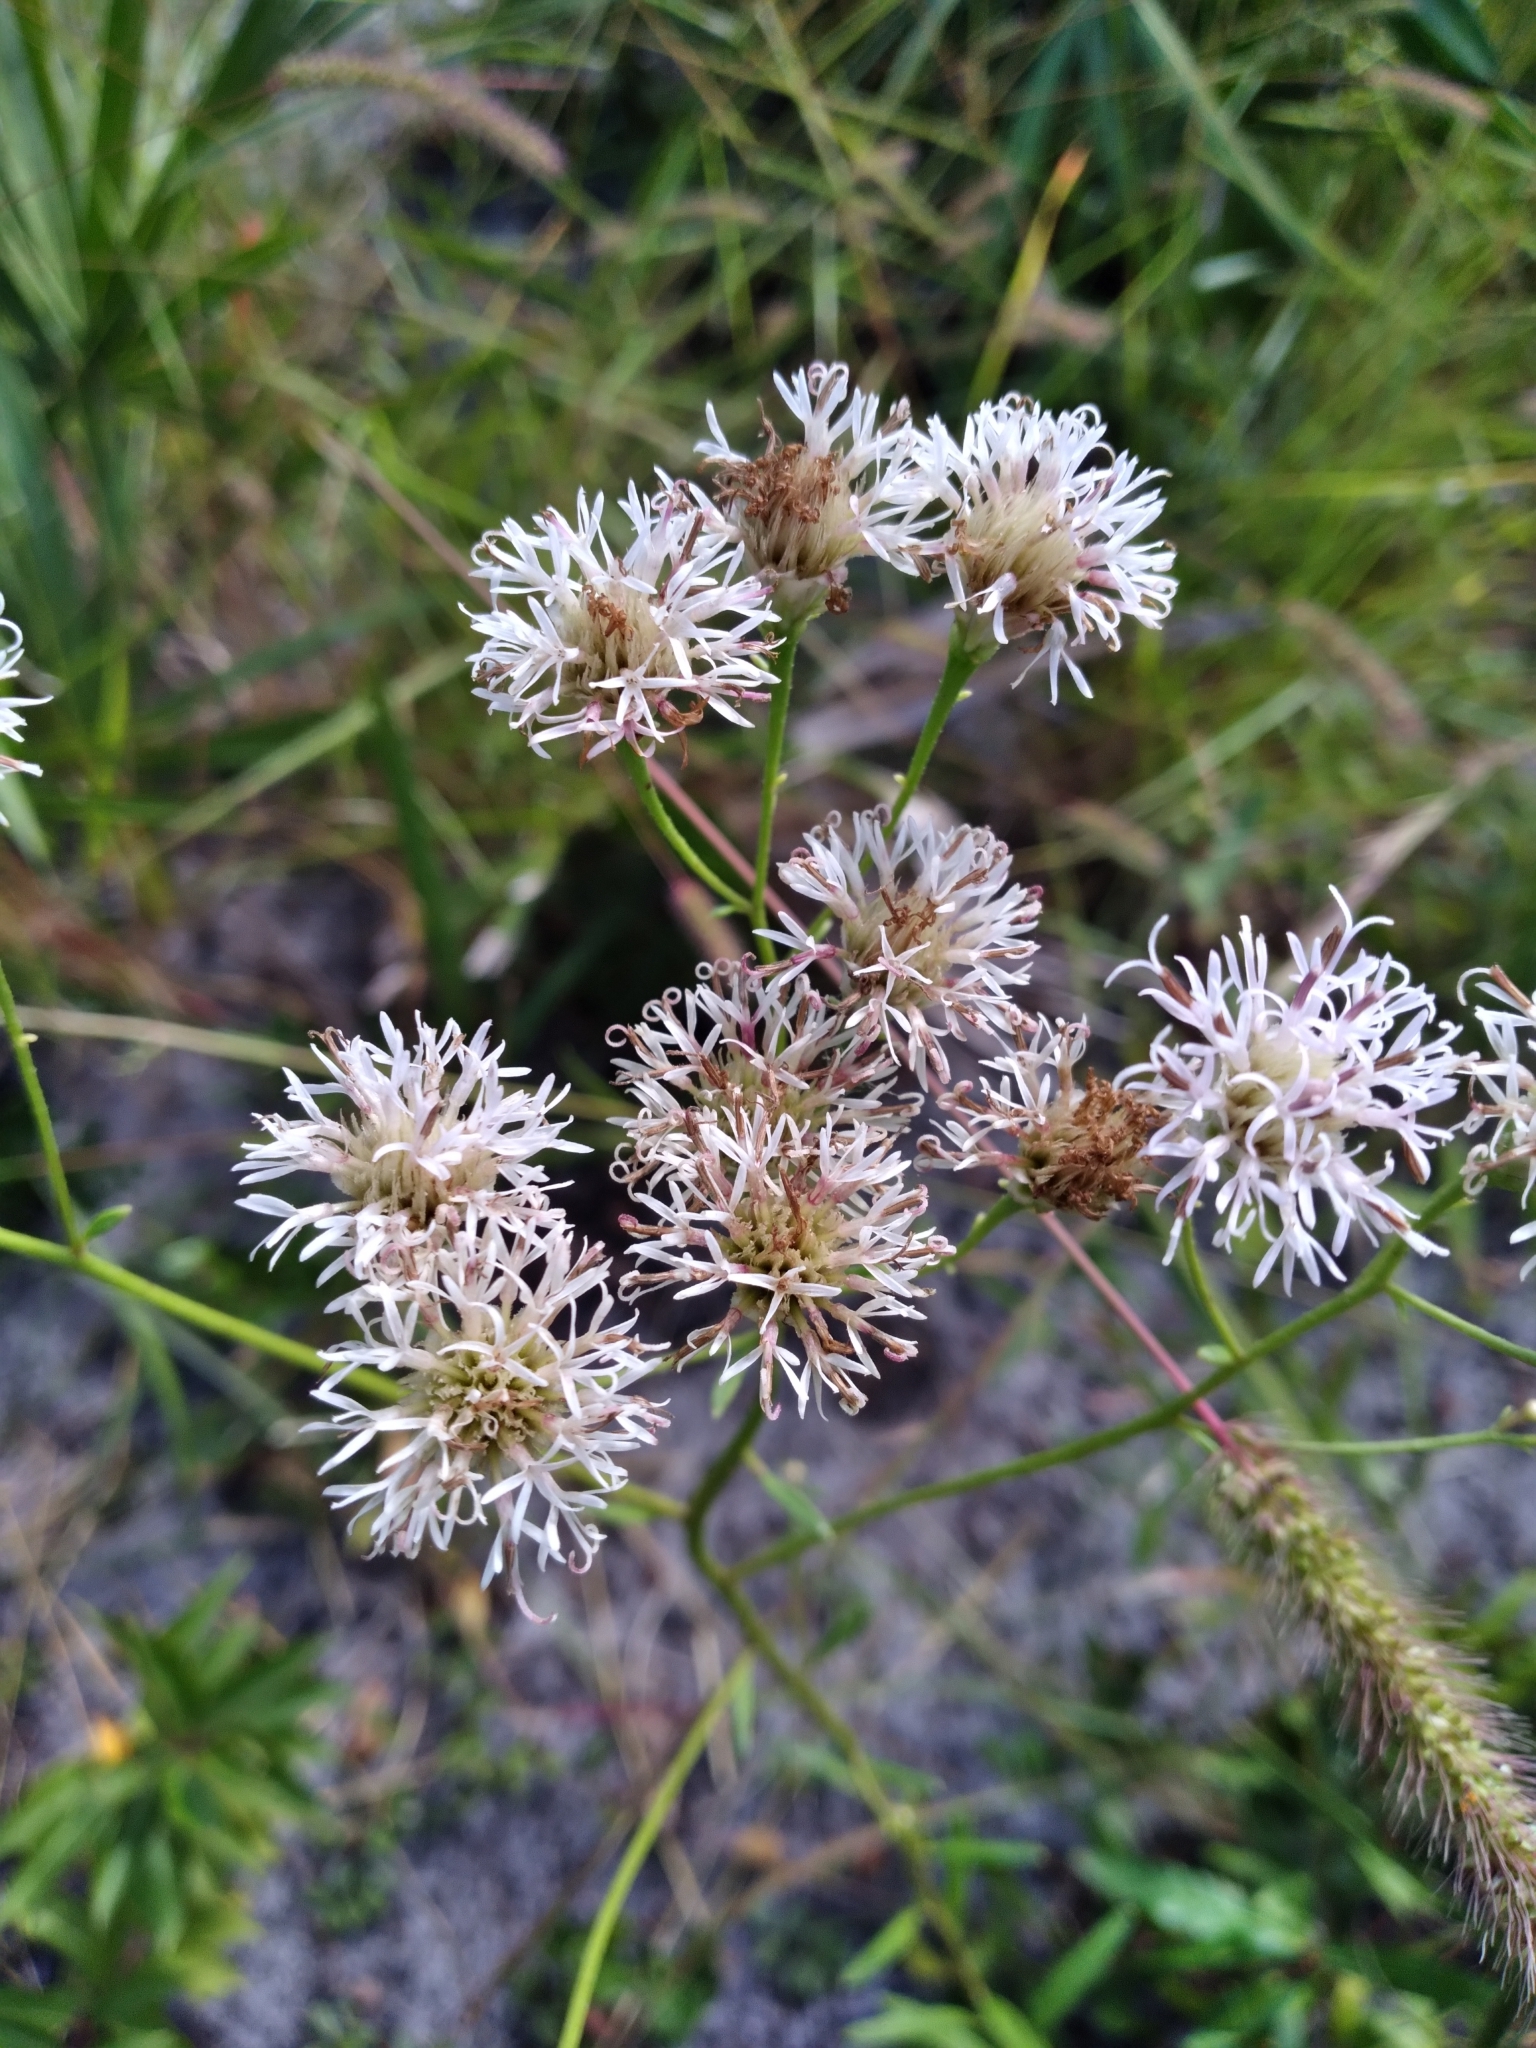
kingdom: Plantae
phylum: Tracheophyta
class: Magnoliopsida
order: Asterales
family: Asteraceae
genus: Palafoxia
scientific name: Palafoxia integrifolia
